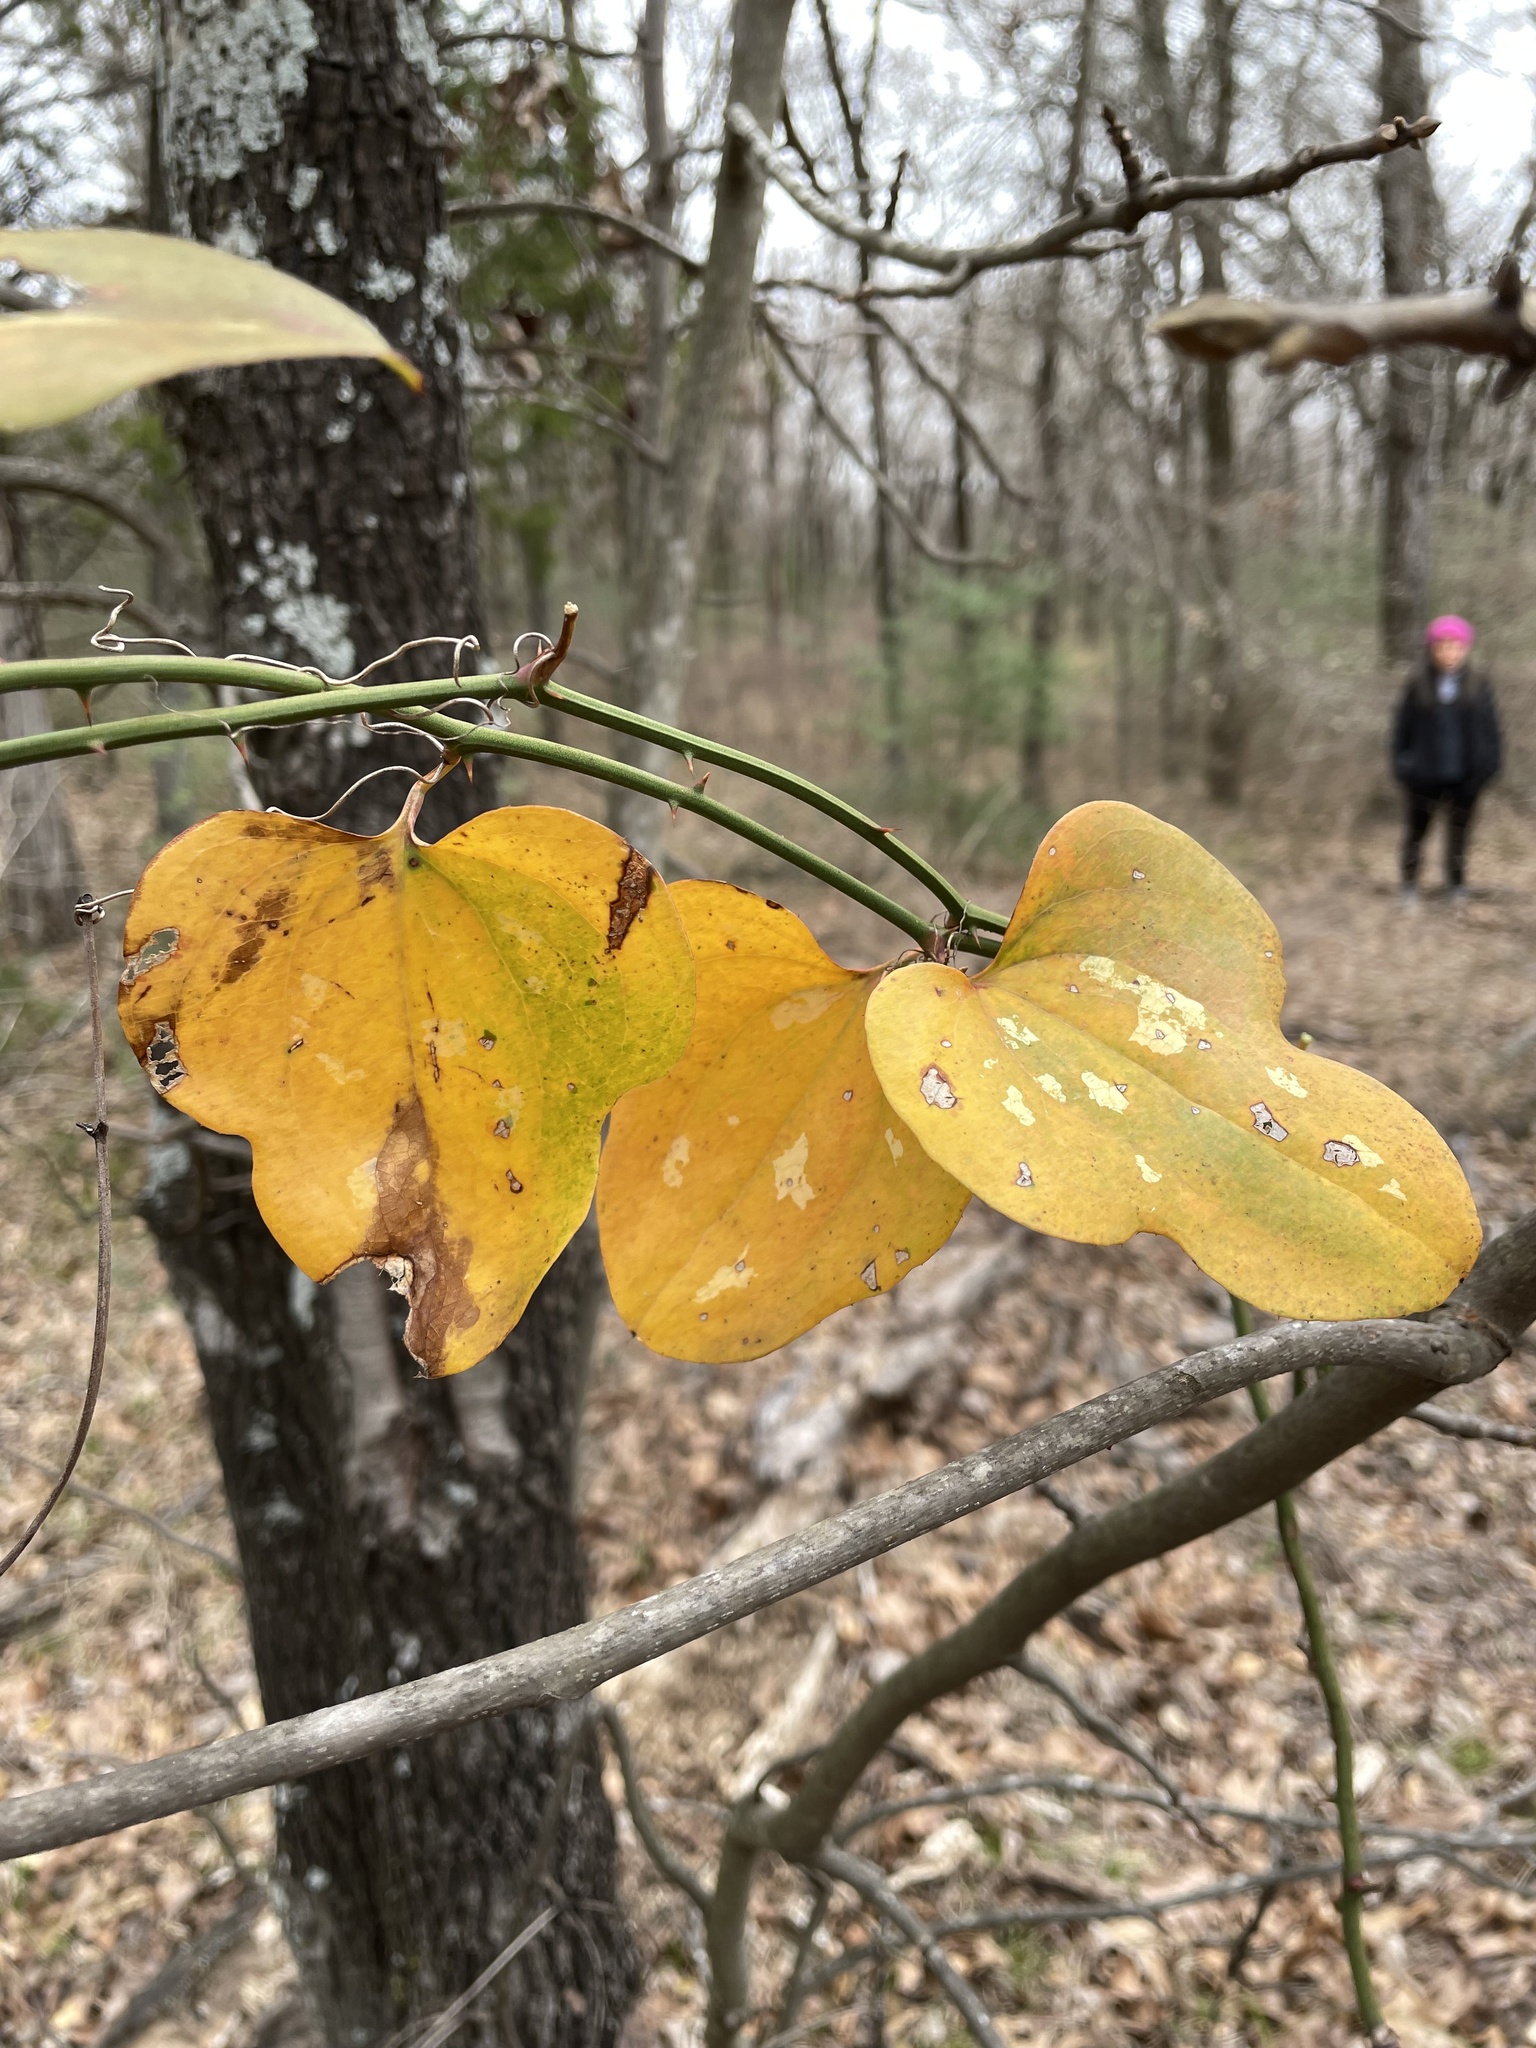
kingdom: Plantae
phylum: Tracheophyta
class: Liliopsida
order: Liliales
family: Smilacaceae
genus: Smilax
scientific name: Smilax bona-nox
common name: Catbrier
